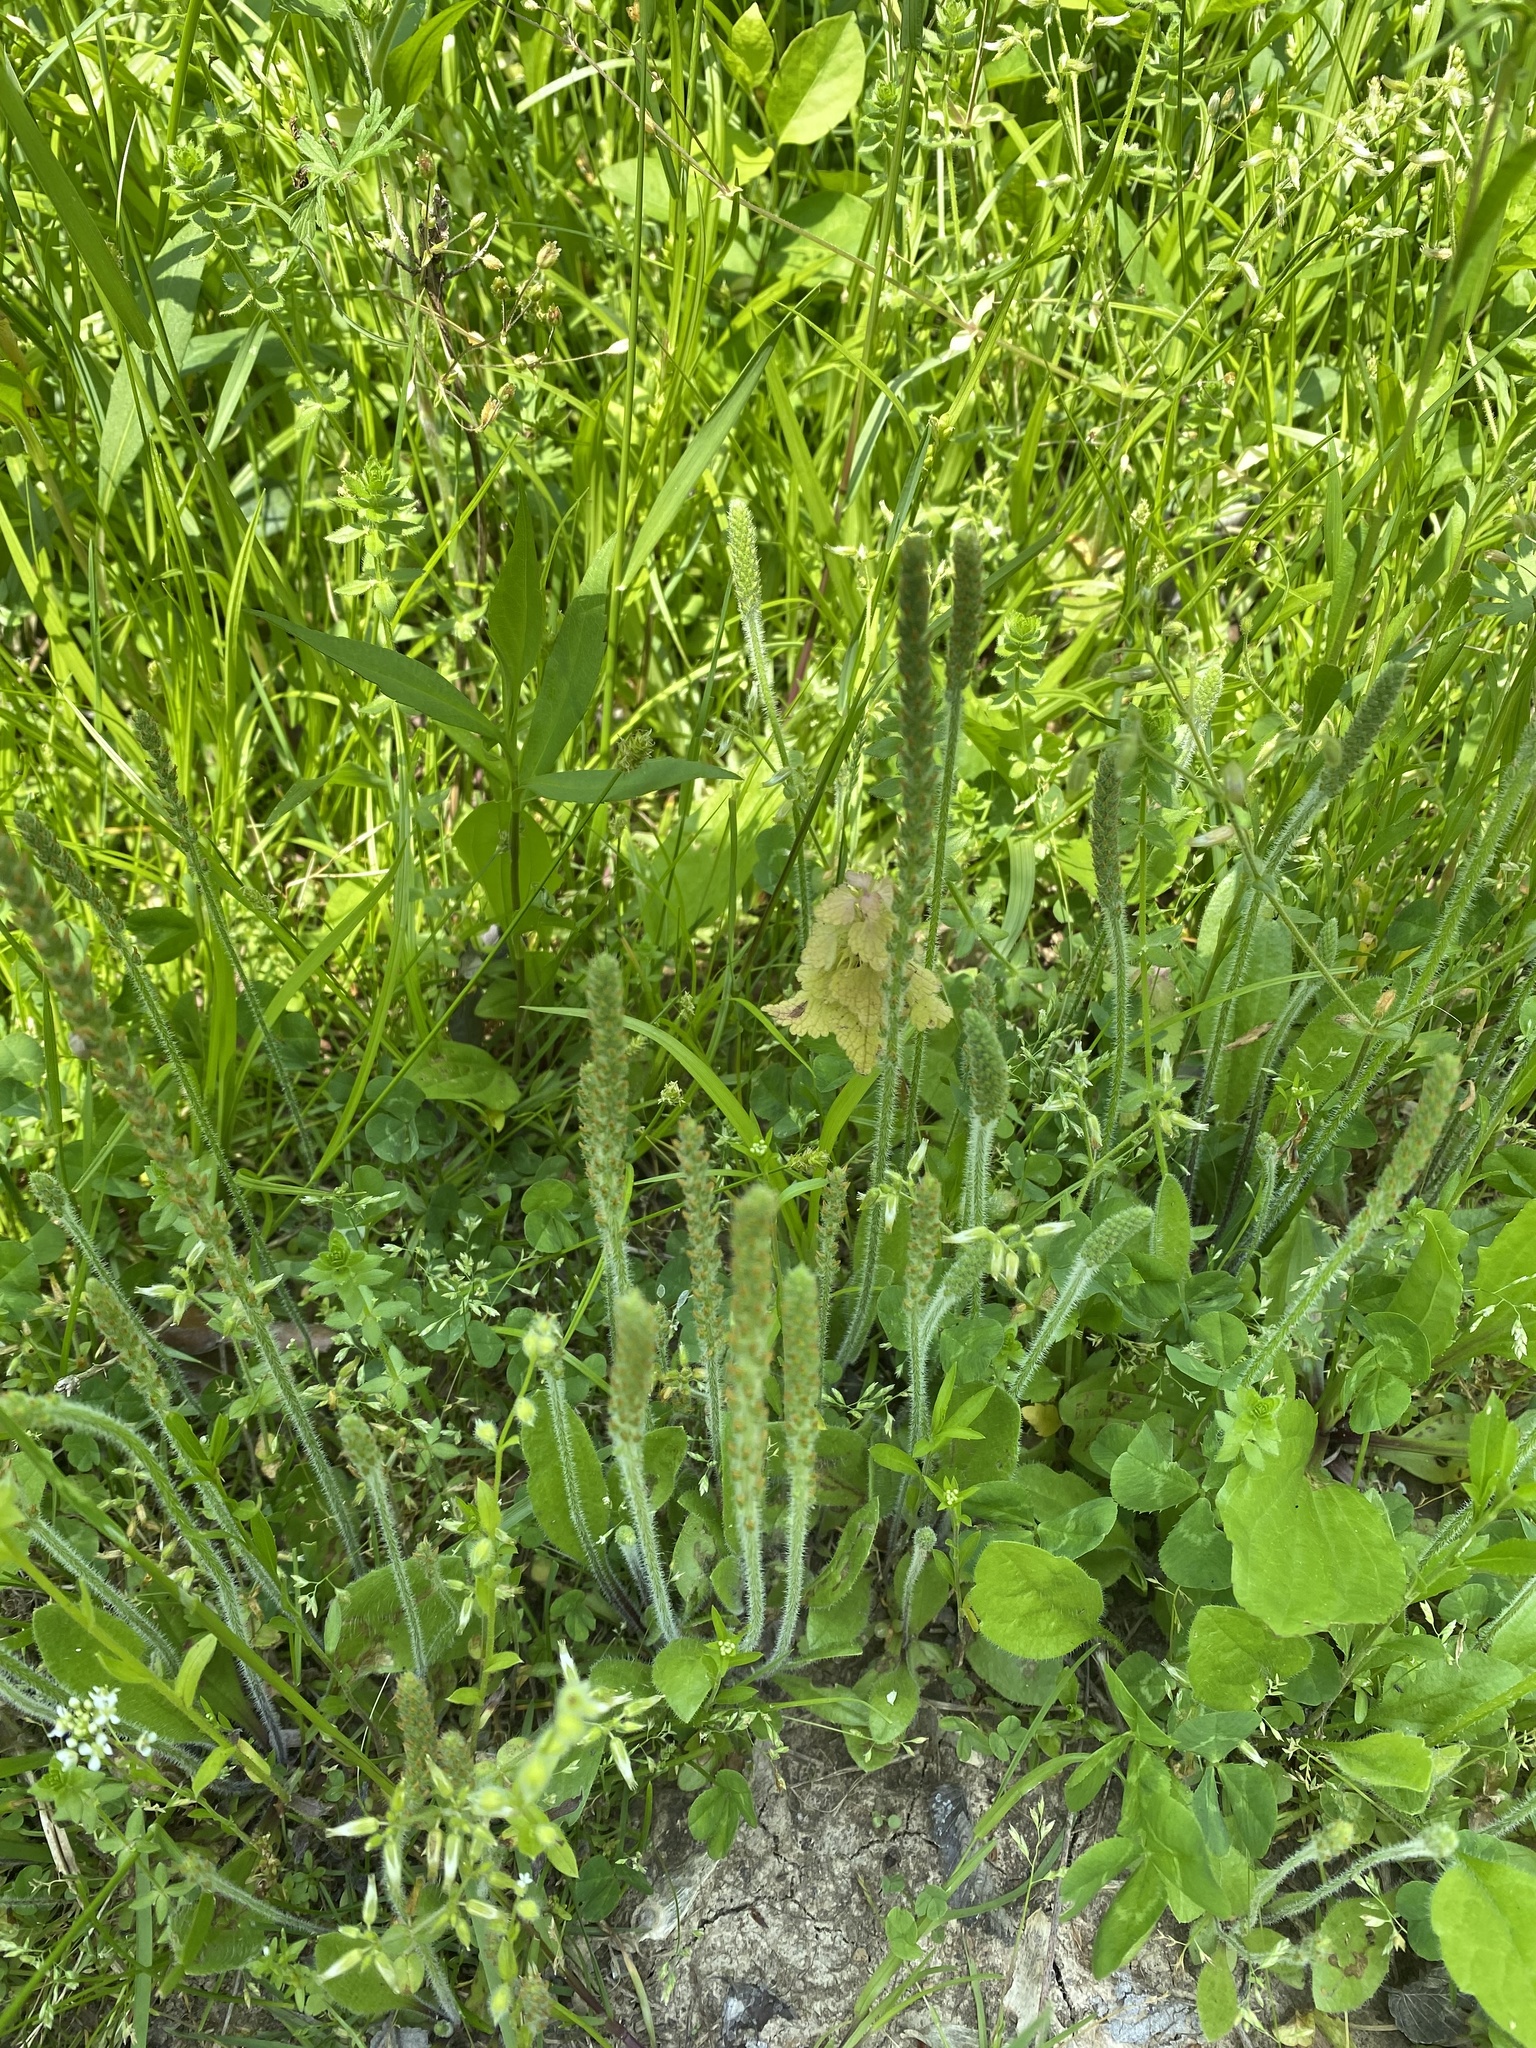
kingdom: Plantae
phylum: Tracheophyta
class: Magnoliopsida
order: Lamiales
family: Plantaginaceae
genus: Plantago
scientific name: Plantago virginica
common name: Hoary plantain
